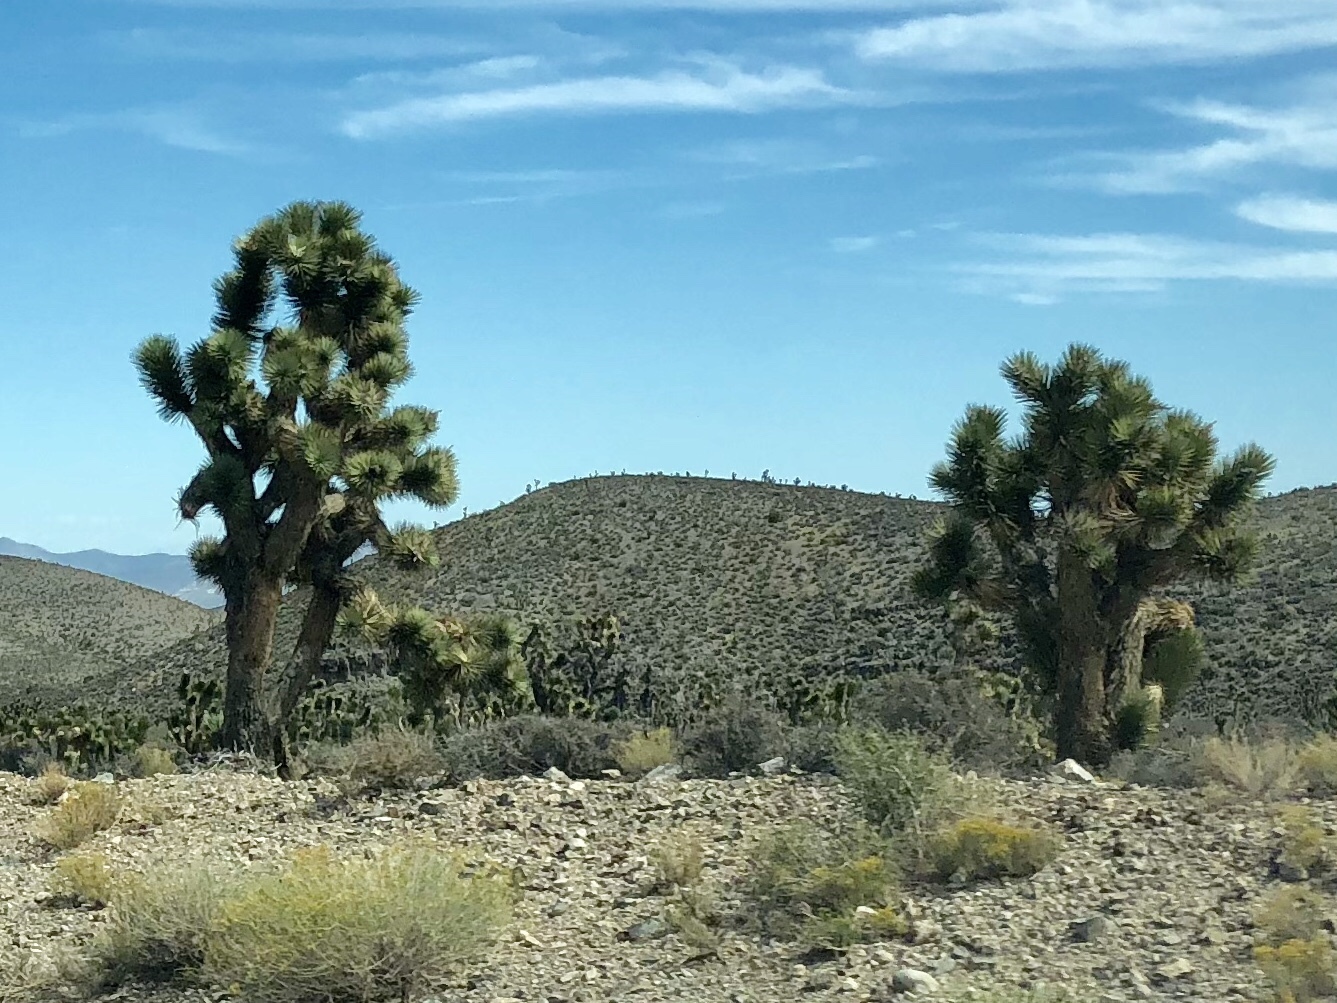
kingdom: Plantae
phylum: Tracheophyta
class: Liliopsida
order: Asparagales
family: Asparagaceae
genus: Yucca
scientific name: Yucca brevifolia
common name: Joshua tree
